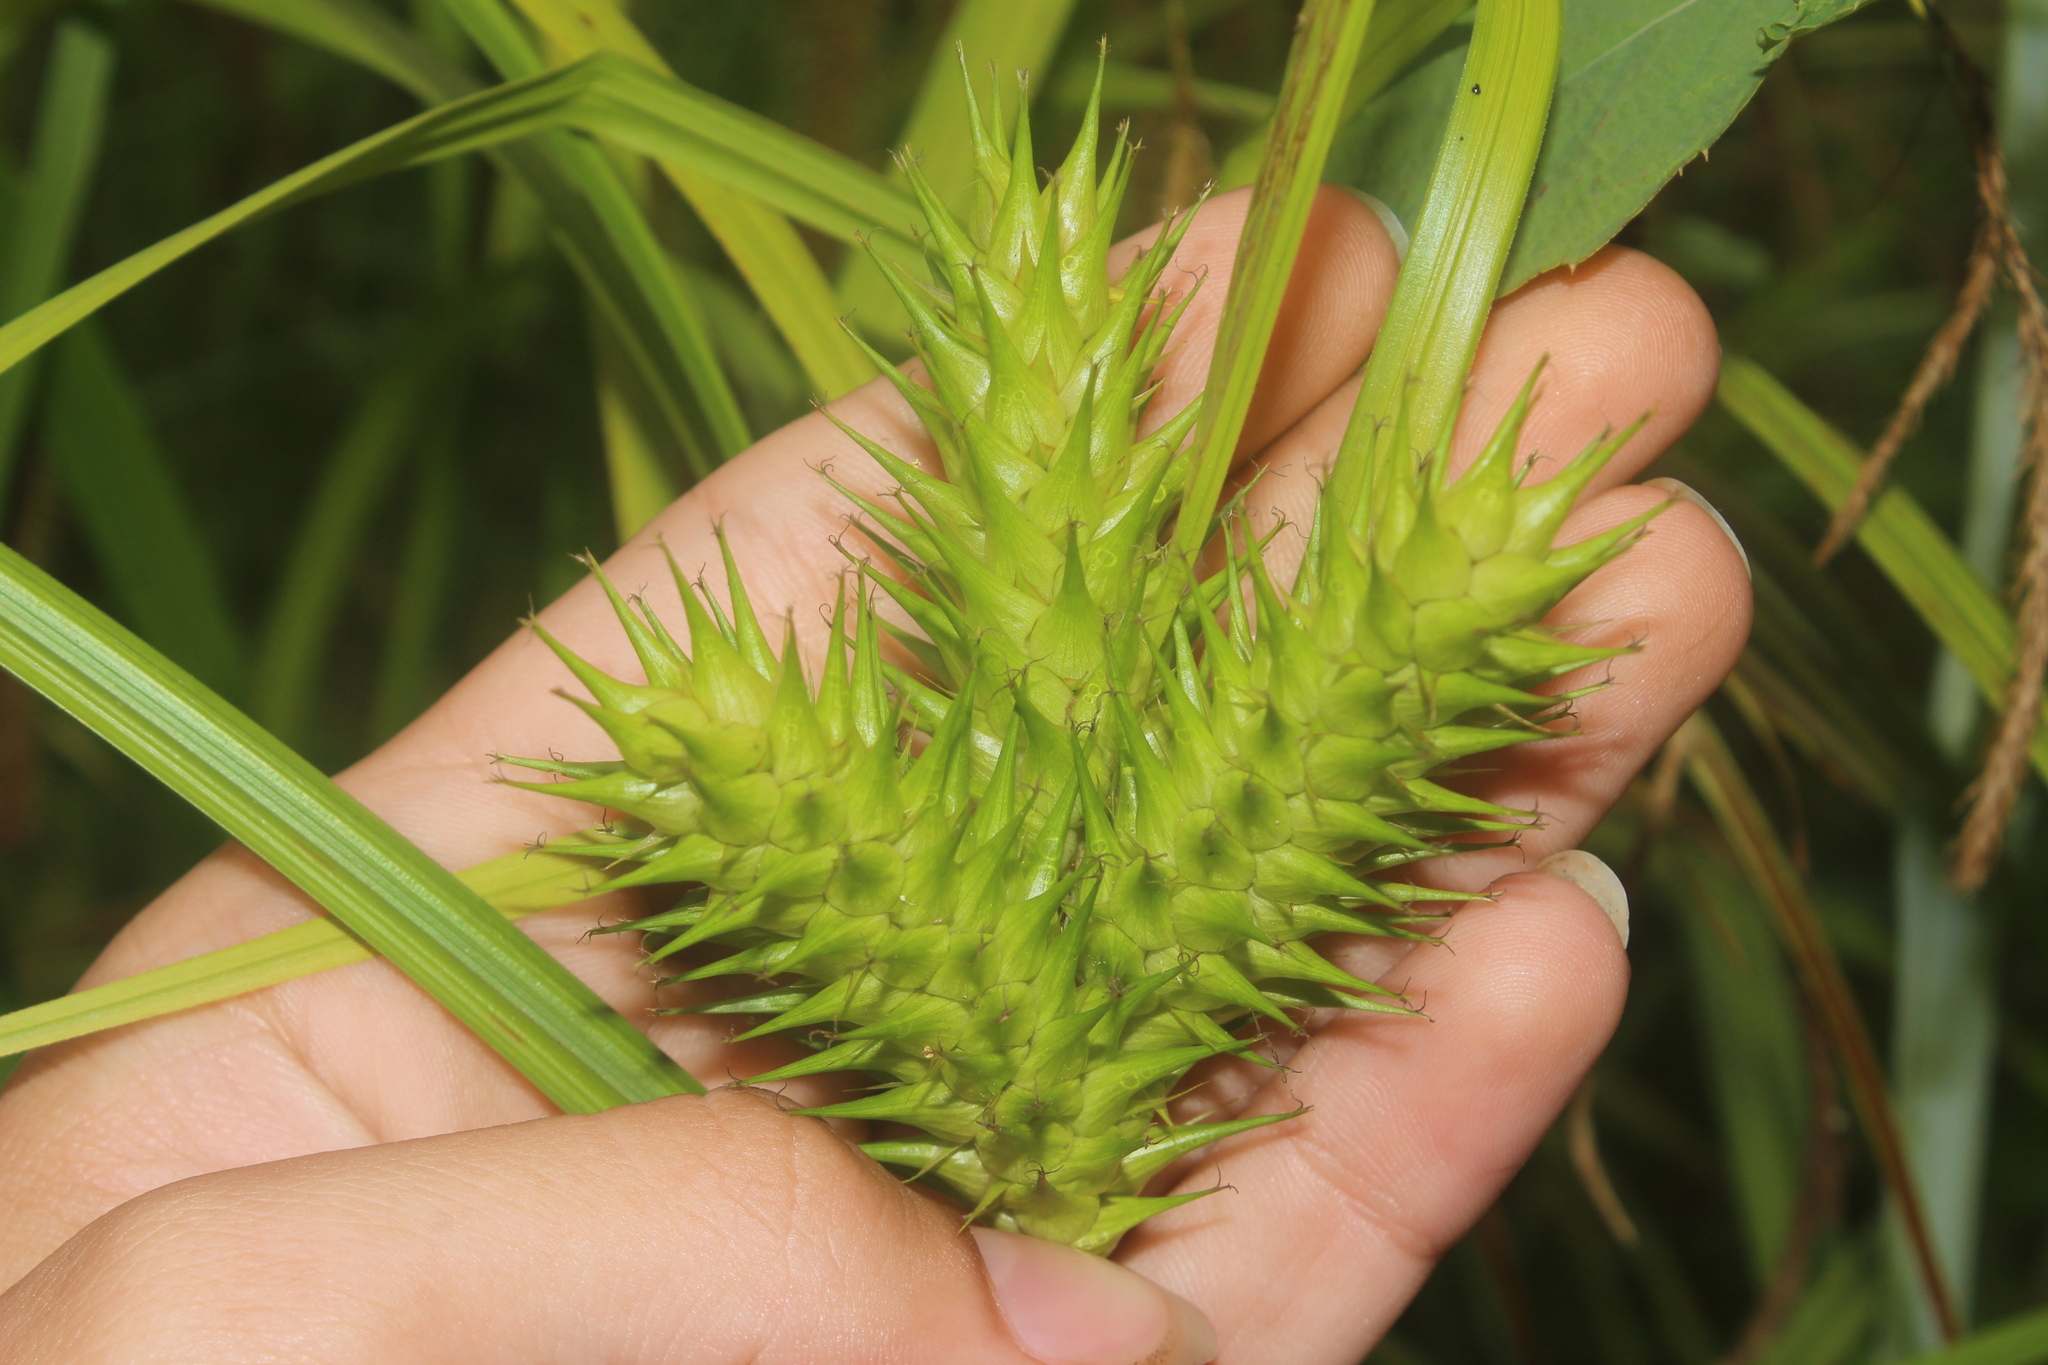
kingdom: Plantae
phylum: Tracheophyta
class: Liliopsida
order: Poales
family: Cyperaceae
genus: Carex
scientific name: Carex lupulina
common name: Hop sedge
